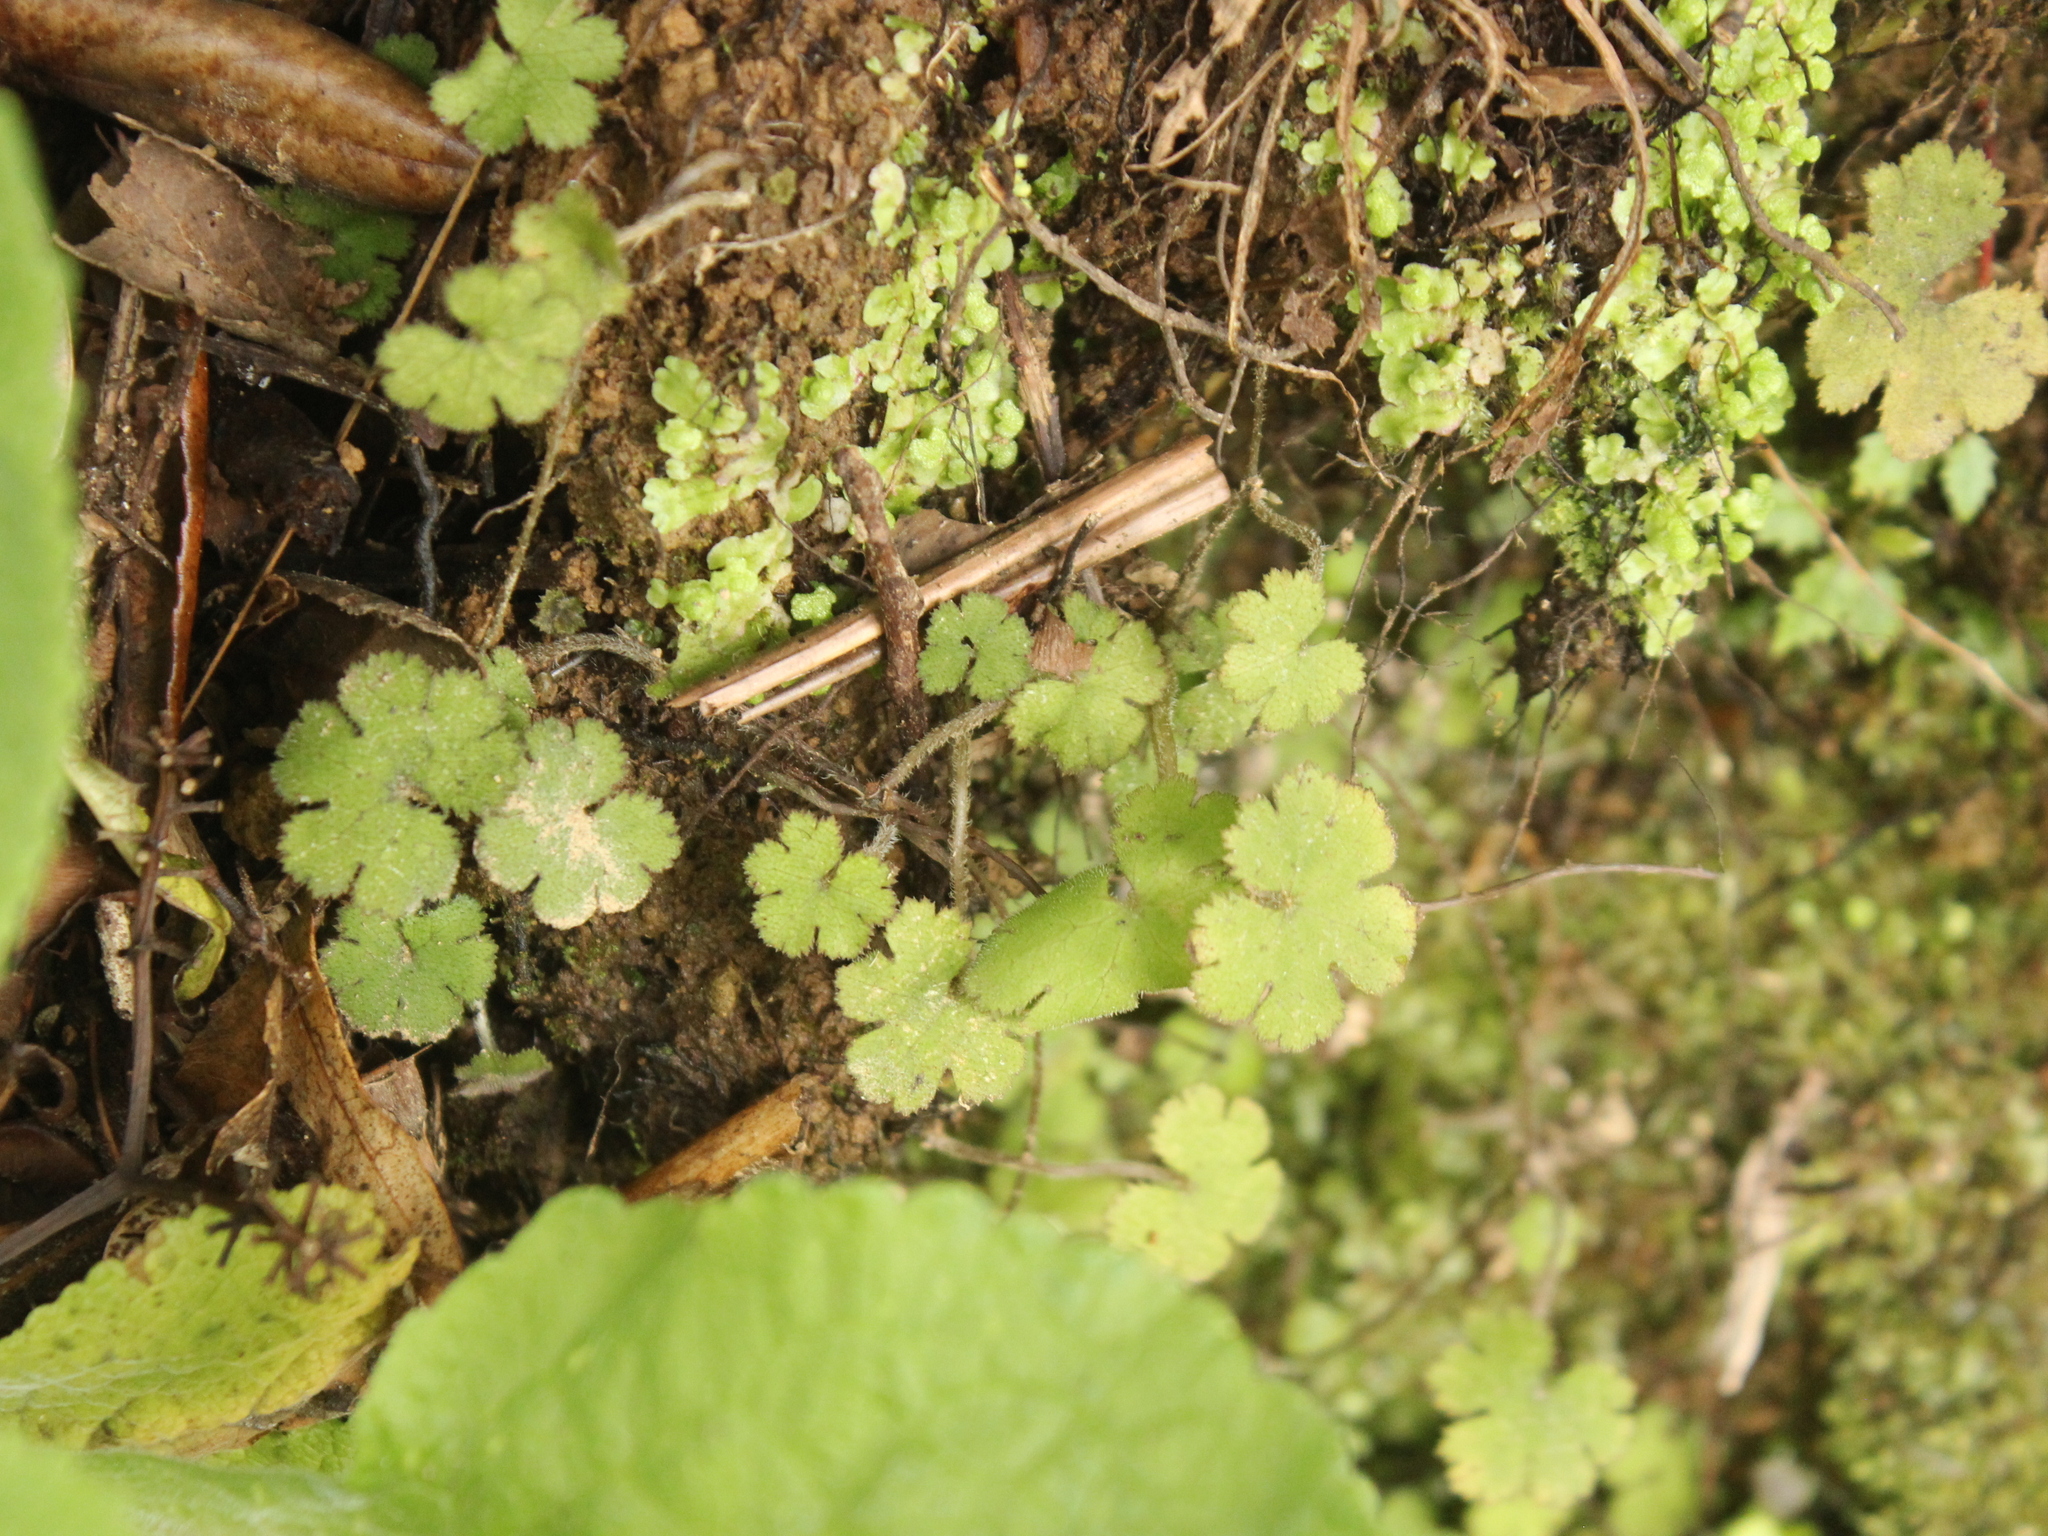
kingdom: Plantae
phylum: Tracheophyta
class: Magnoliopsida
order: Apiales
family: Araliaceae
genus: Hydrocotyle
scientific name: Hydrocotyle elongata
